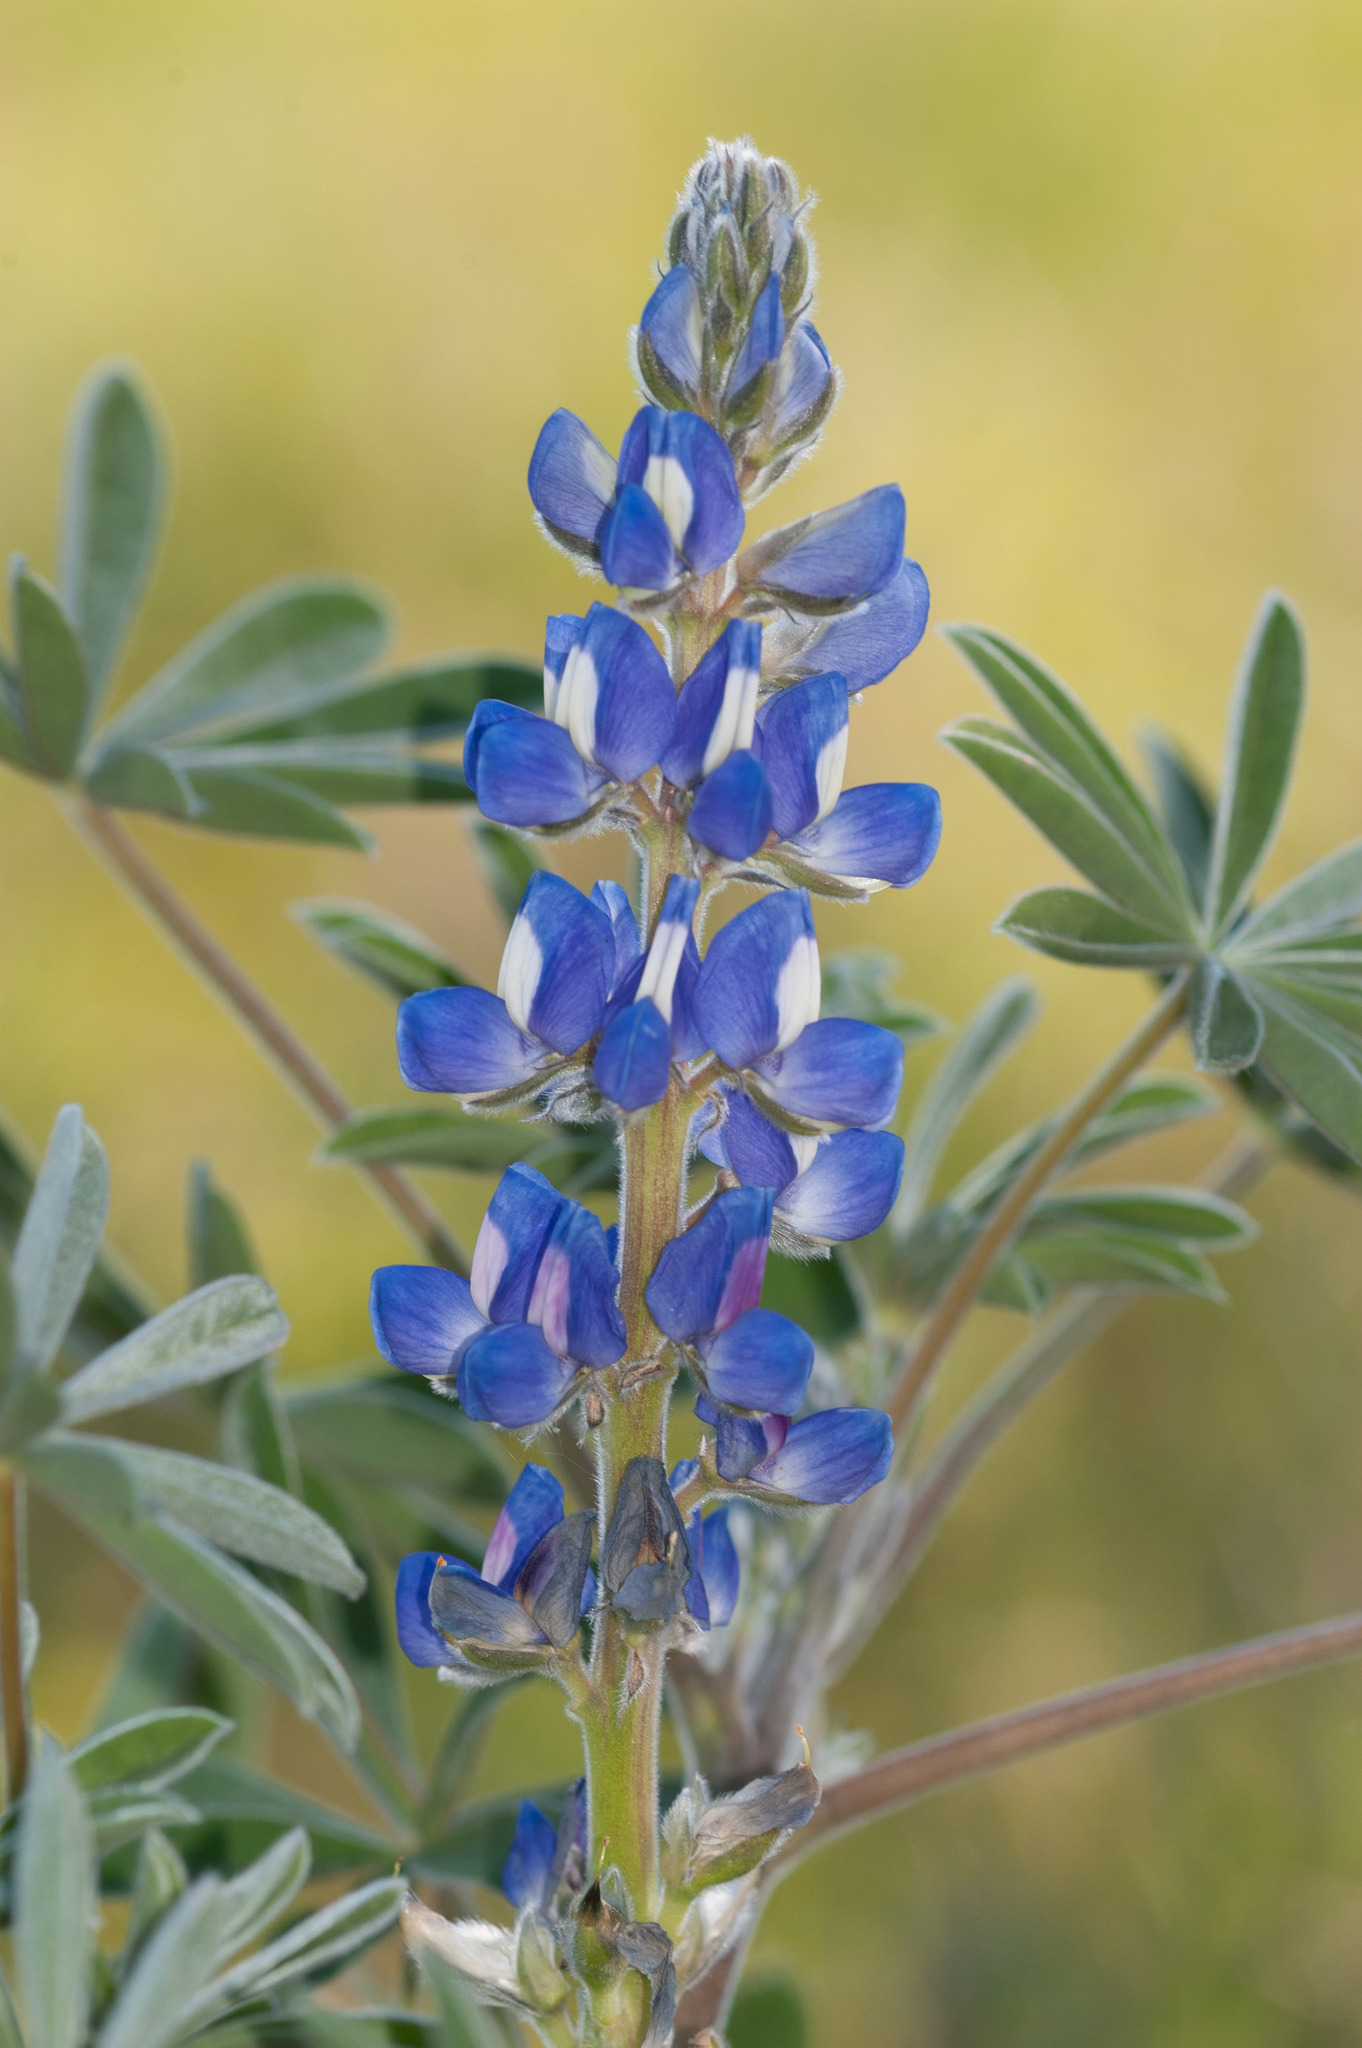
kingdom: Plantae
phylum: Tracheophyta
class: Magnoliopsida
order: Fabales
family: Fabaceae
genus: Lupinus
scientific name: Lupinus cosentinii
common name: Hairy blue lupin
